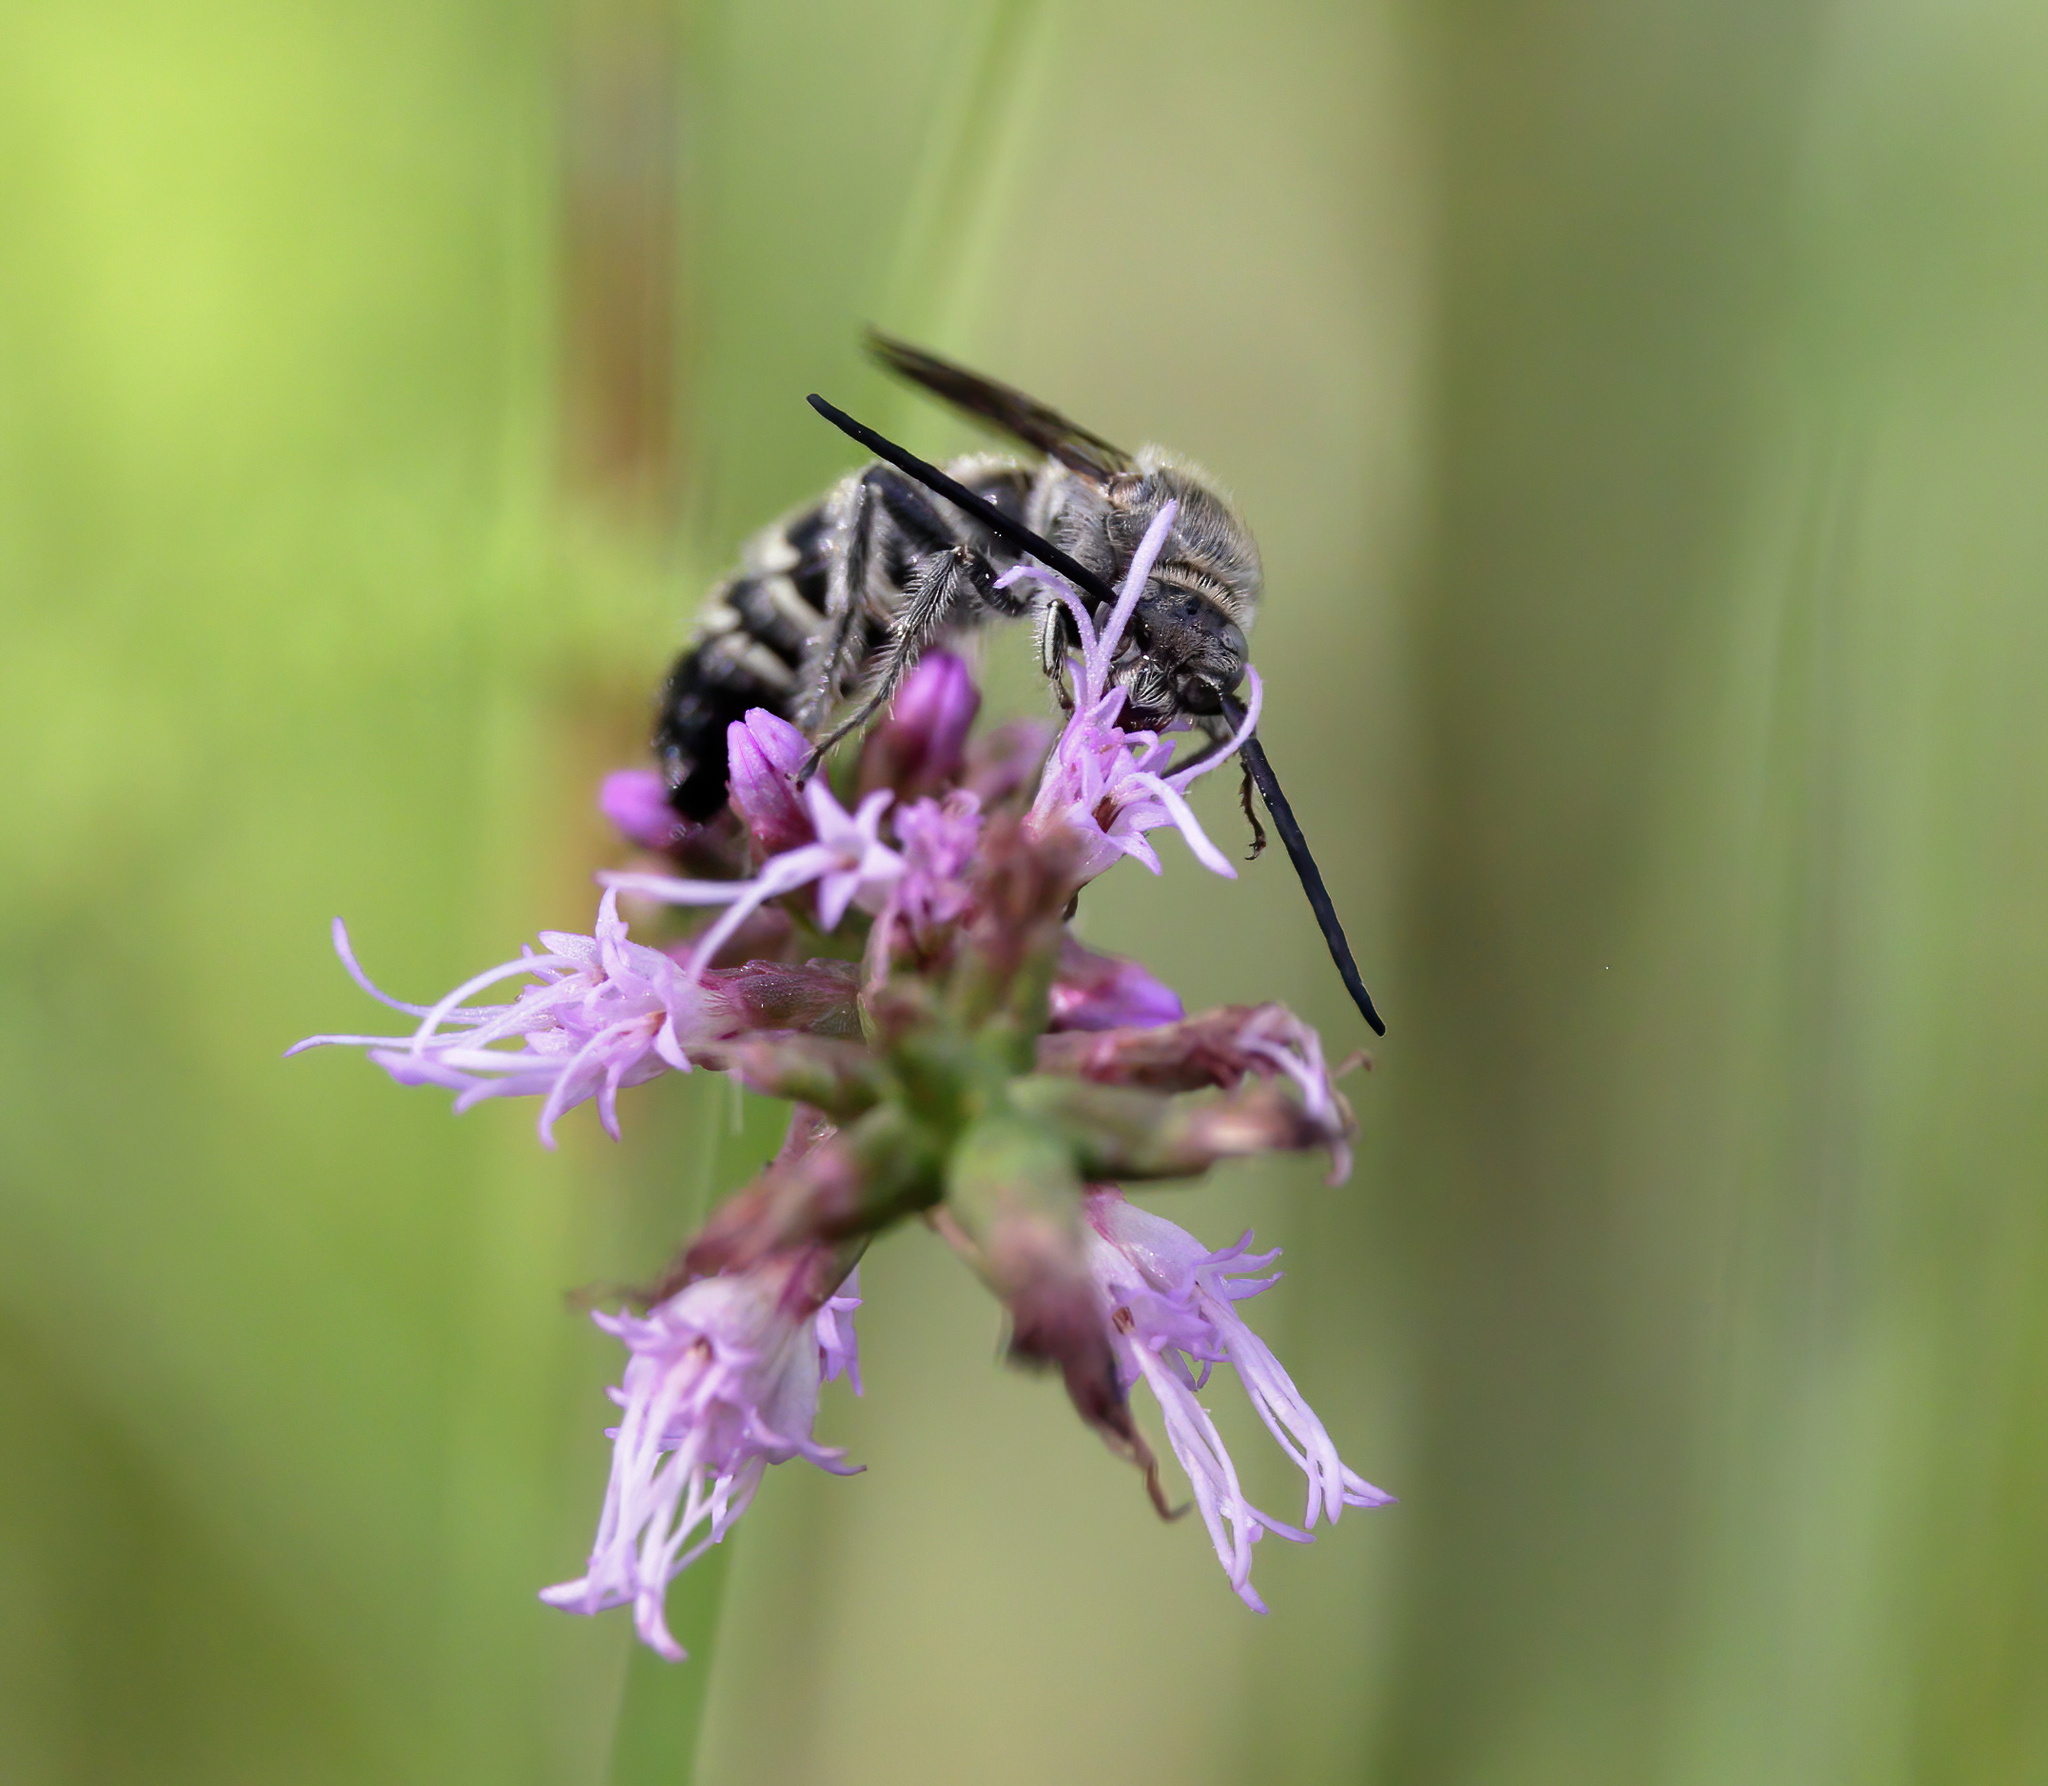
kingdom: Animalia
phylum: Arthropoda
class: Insecta
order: Hymenoptera
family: Scoliidae
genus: Dielis
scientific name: Dielis
